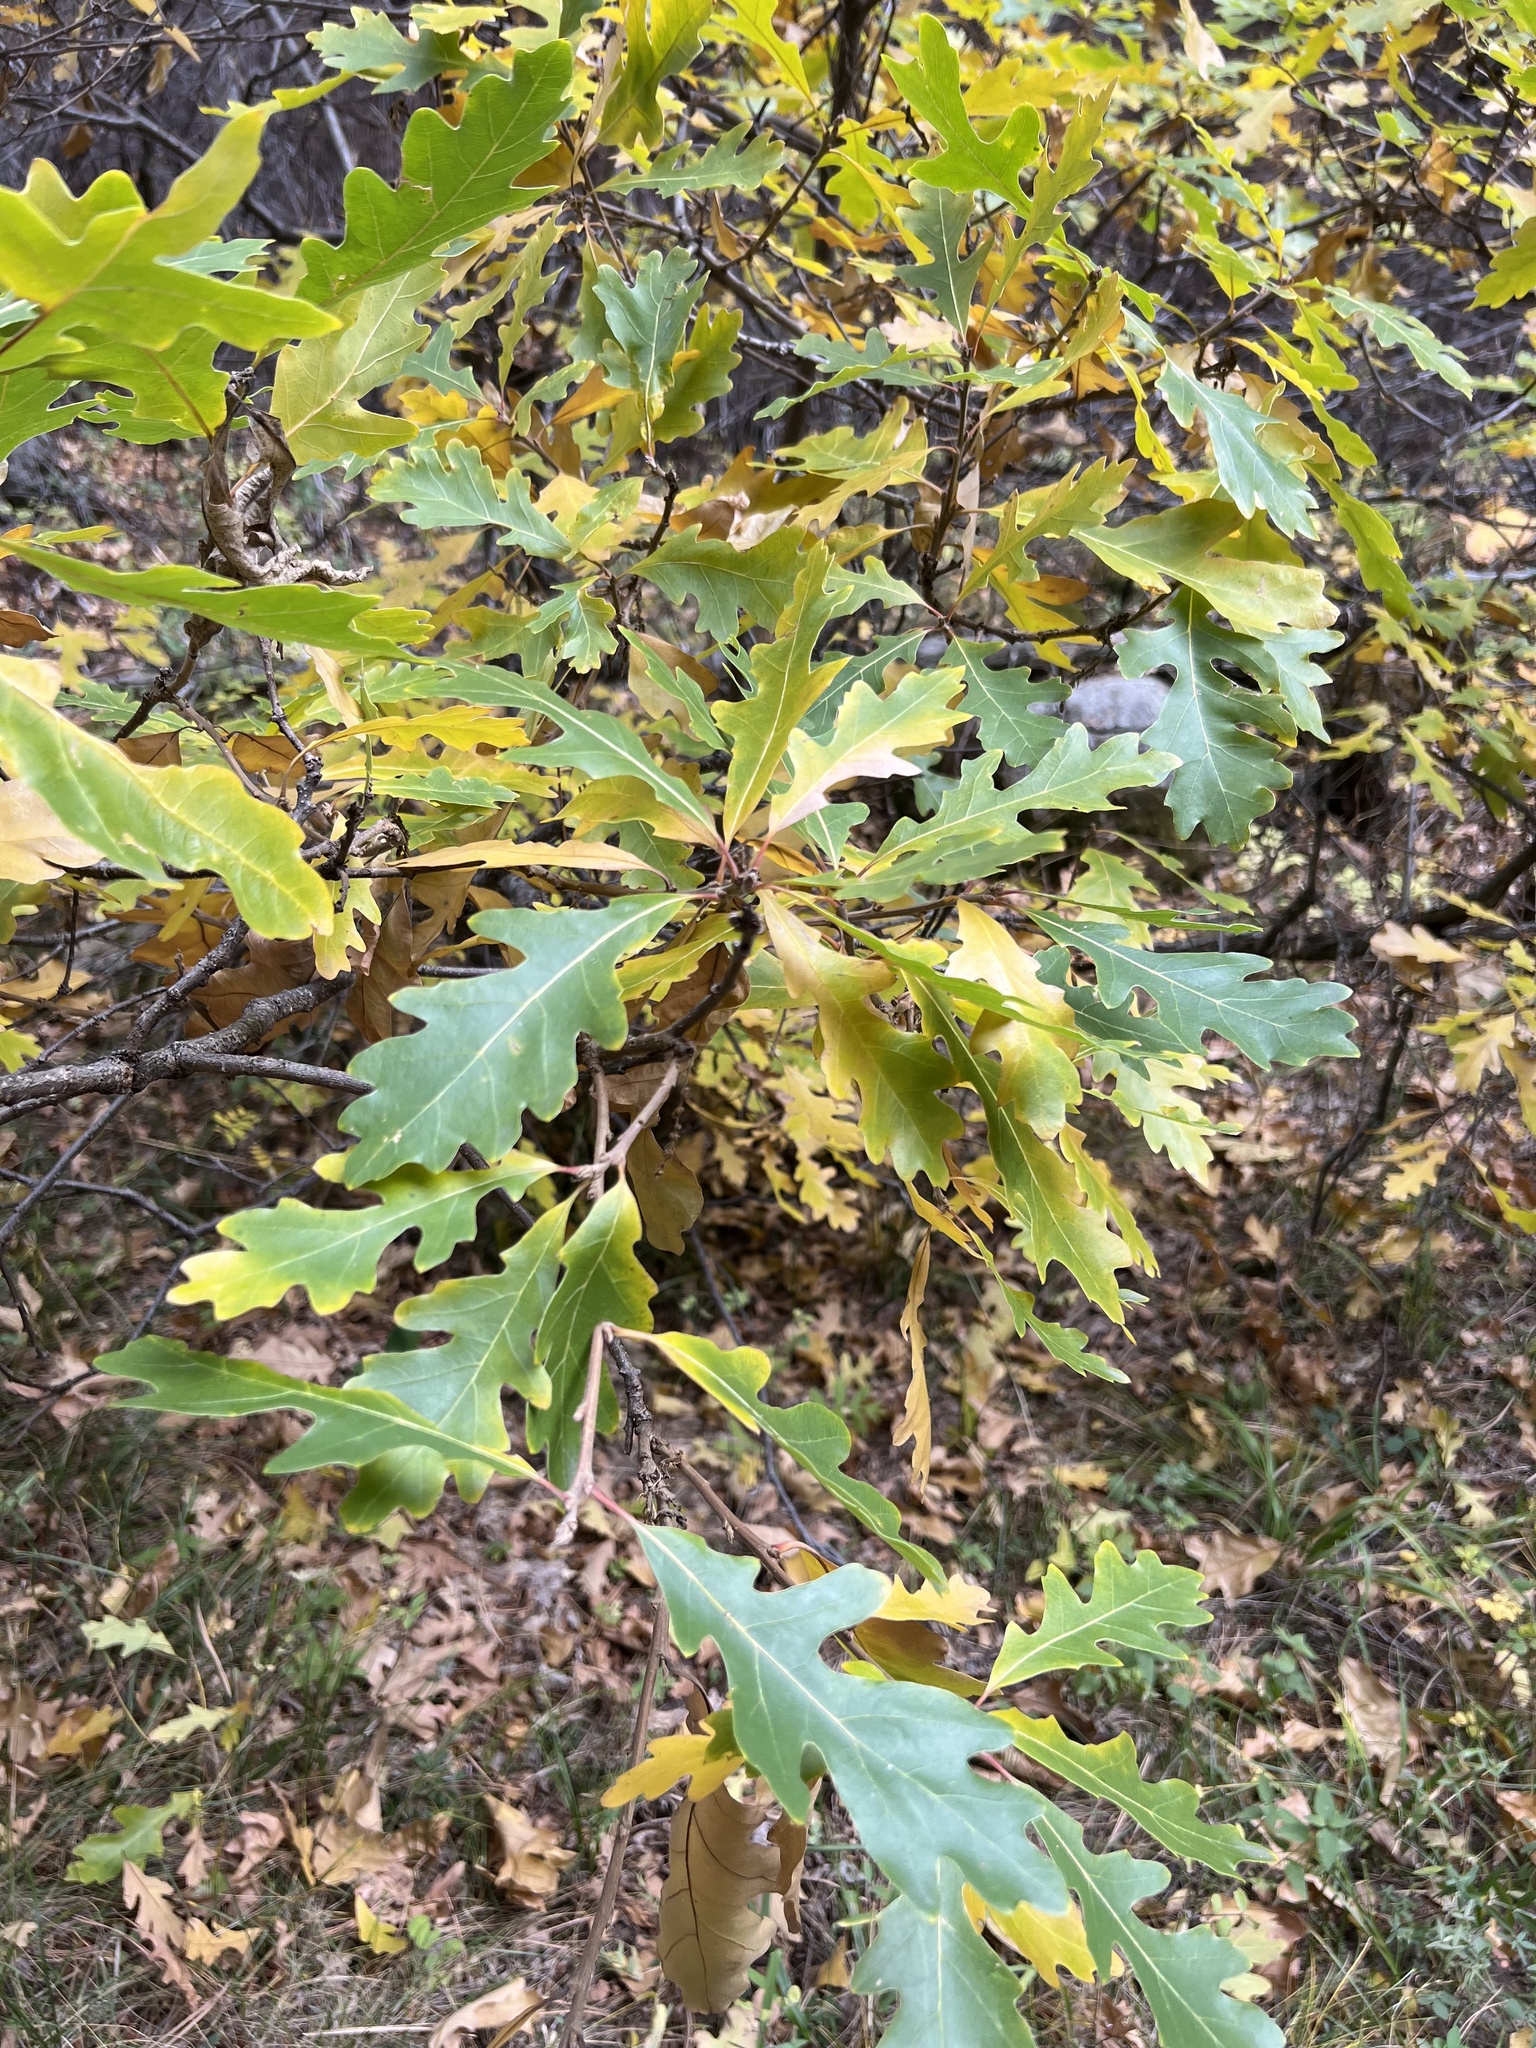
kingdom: Plantae
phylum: Tracheophyta
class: Magnoliopsida
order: Fagales
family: Fagaceae
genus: Quercus
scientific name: Quercus gambelii
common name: Gambel oak
